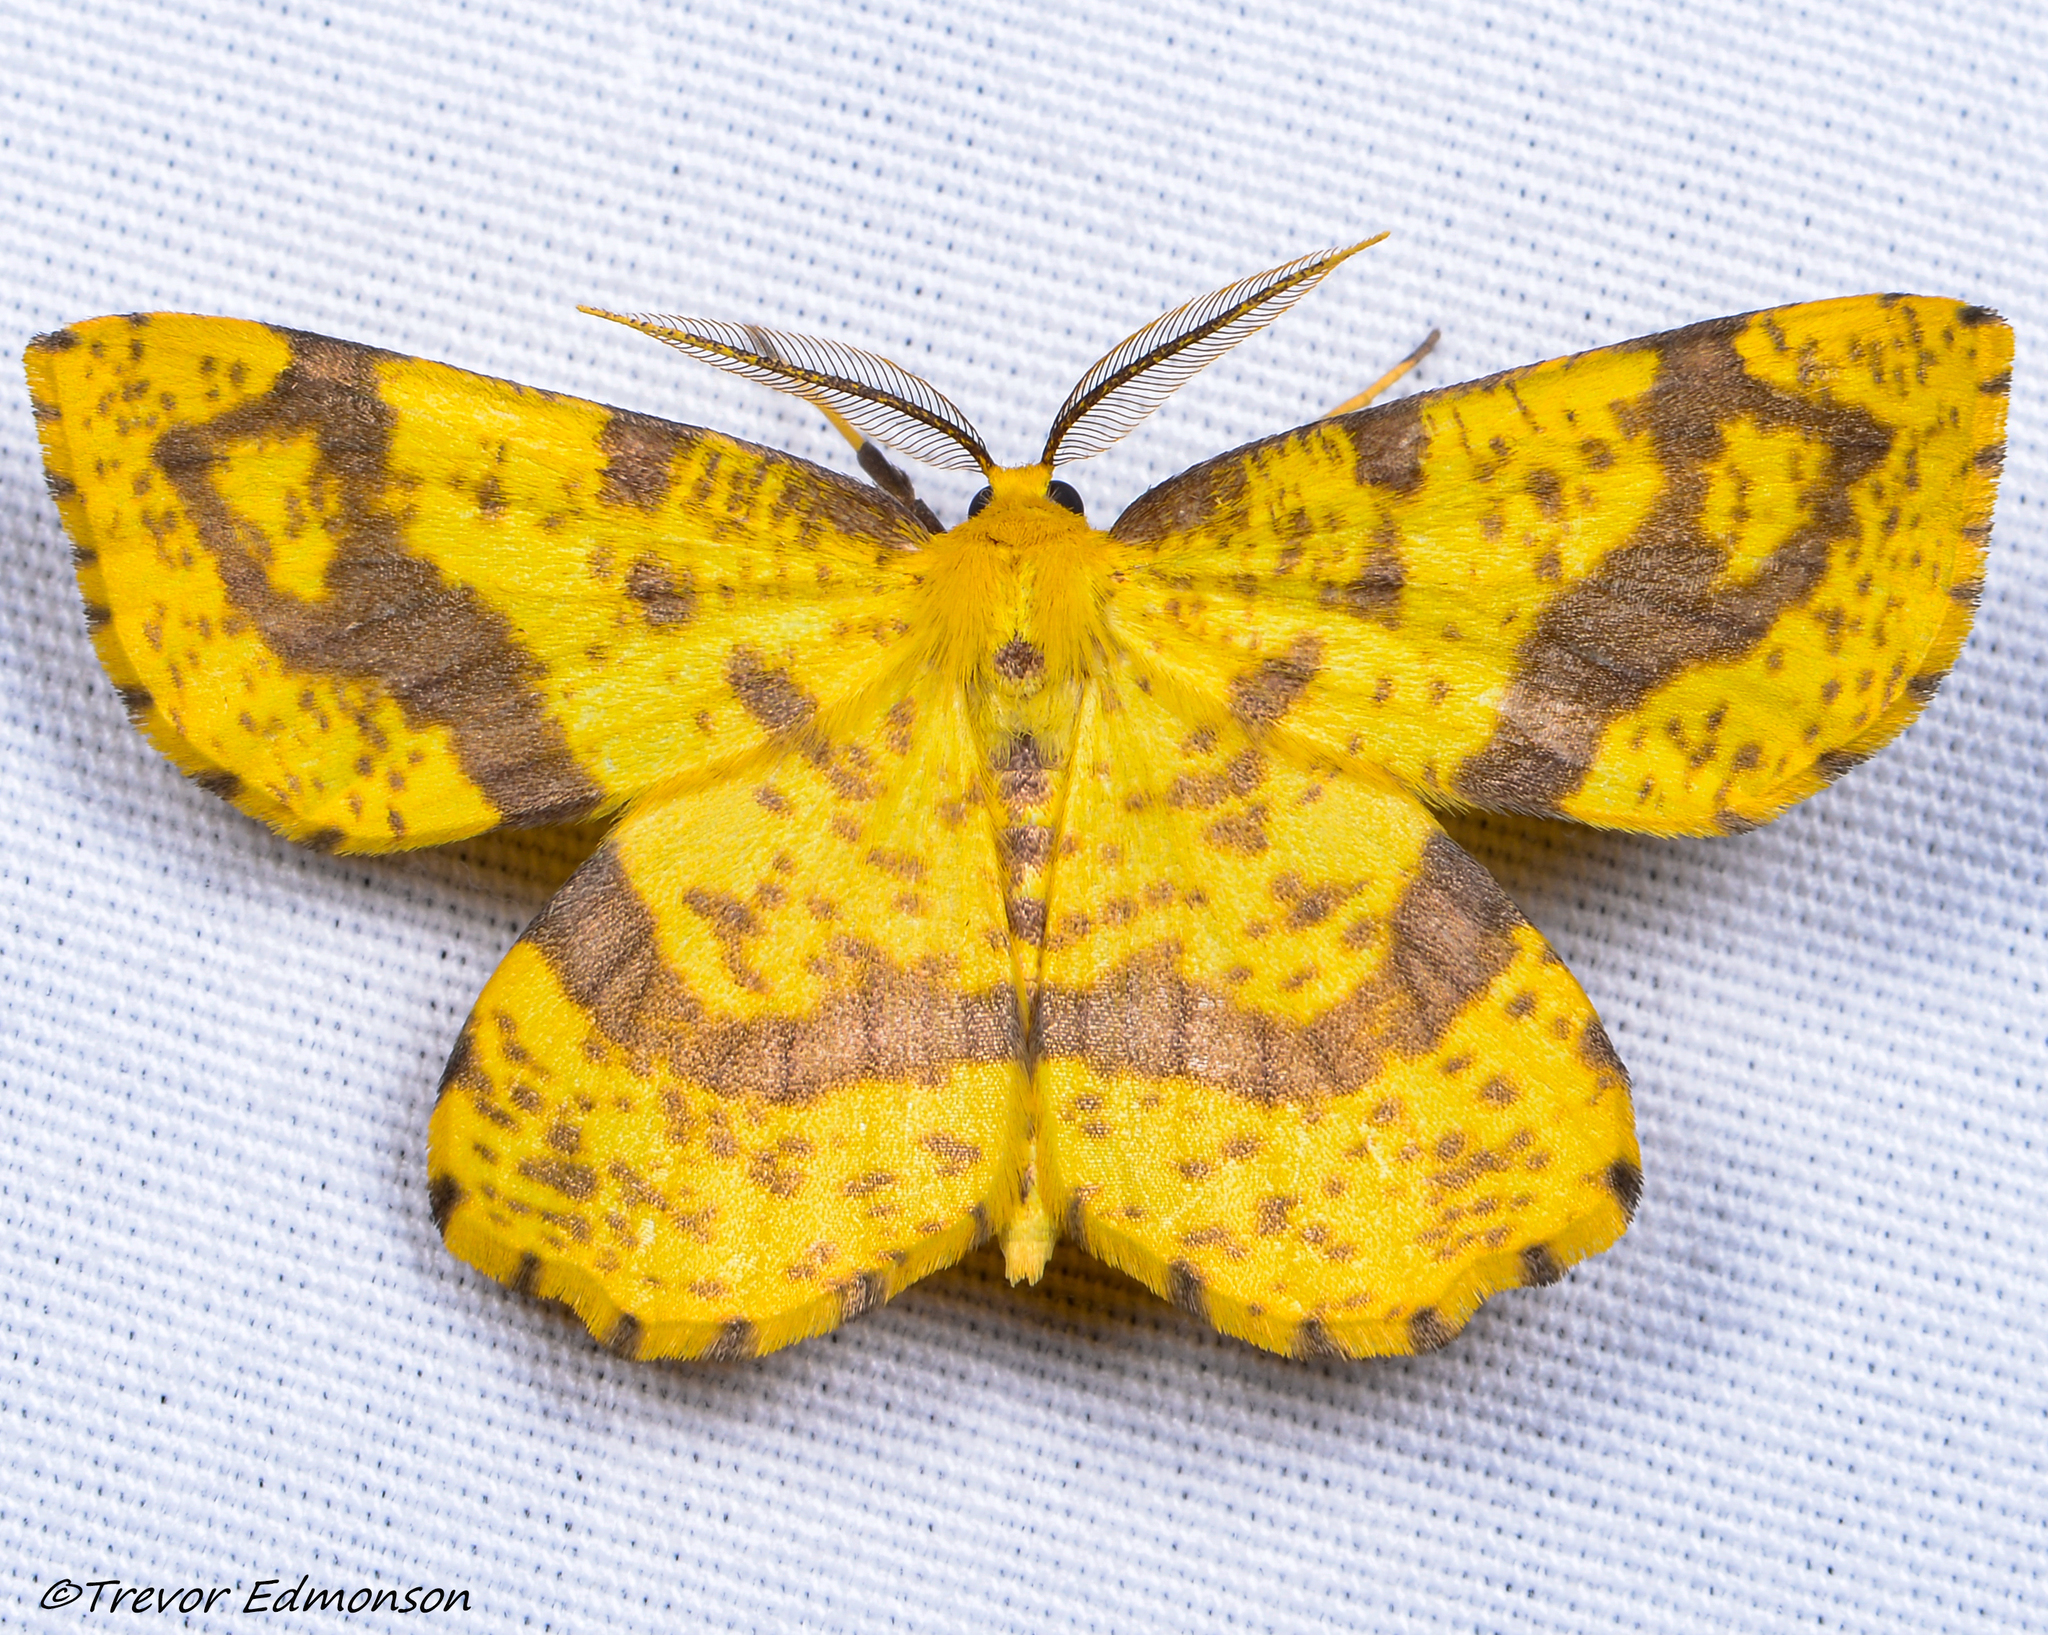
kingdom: Animalia
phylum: Arthropoda
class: Insecta
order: Lepidoptera
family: Geometridae
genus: Xanthotype
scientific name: Xanthotype
